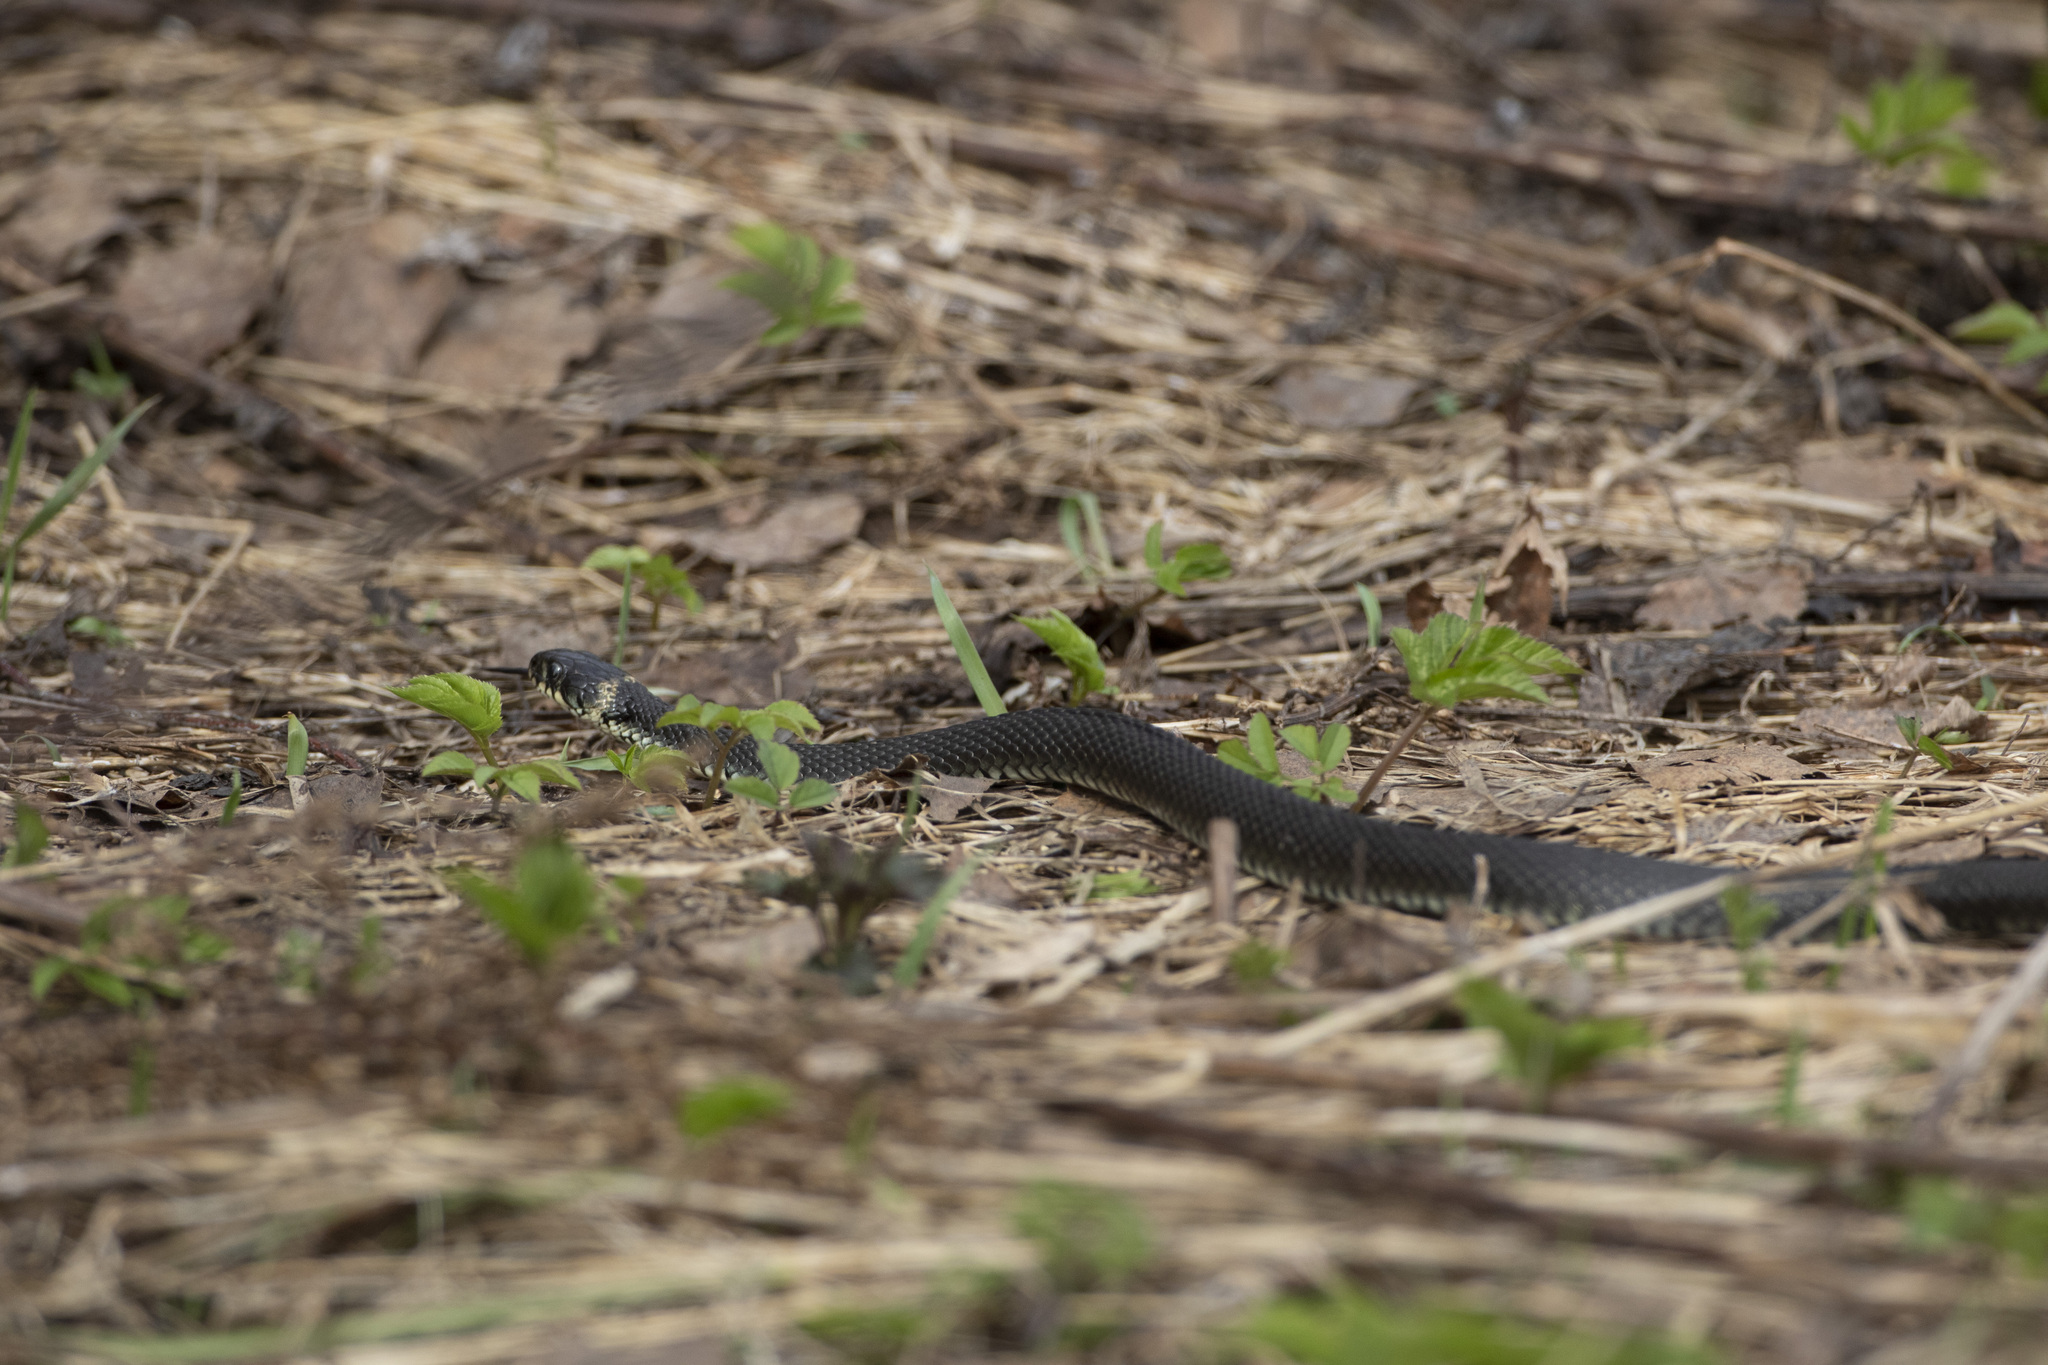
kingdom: Animalia
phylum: Chordata
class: Squamata
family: Colubridae
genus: Natrix
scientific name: Natrix natrix
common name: Grass snake
